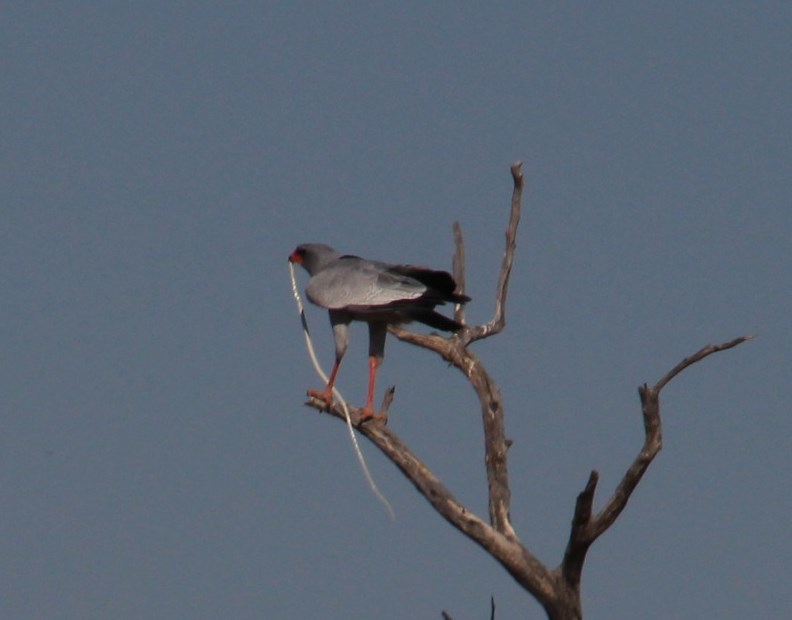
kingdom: Animalia
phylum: Chordata
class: Aves
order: Accipitriformes
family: Accipitridae
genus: Melierax
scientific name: Melierax canorus
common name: Pale chanting-goshawk
